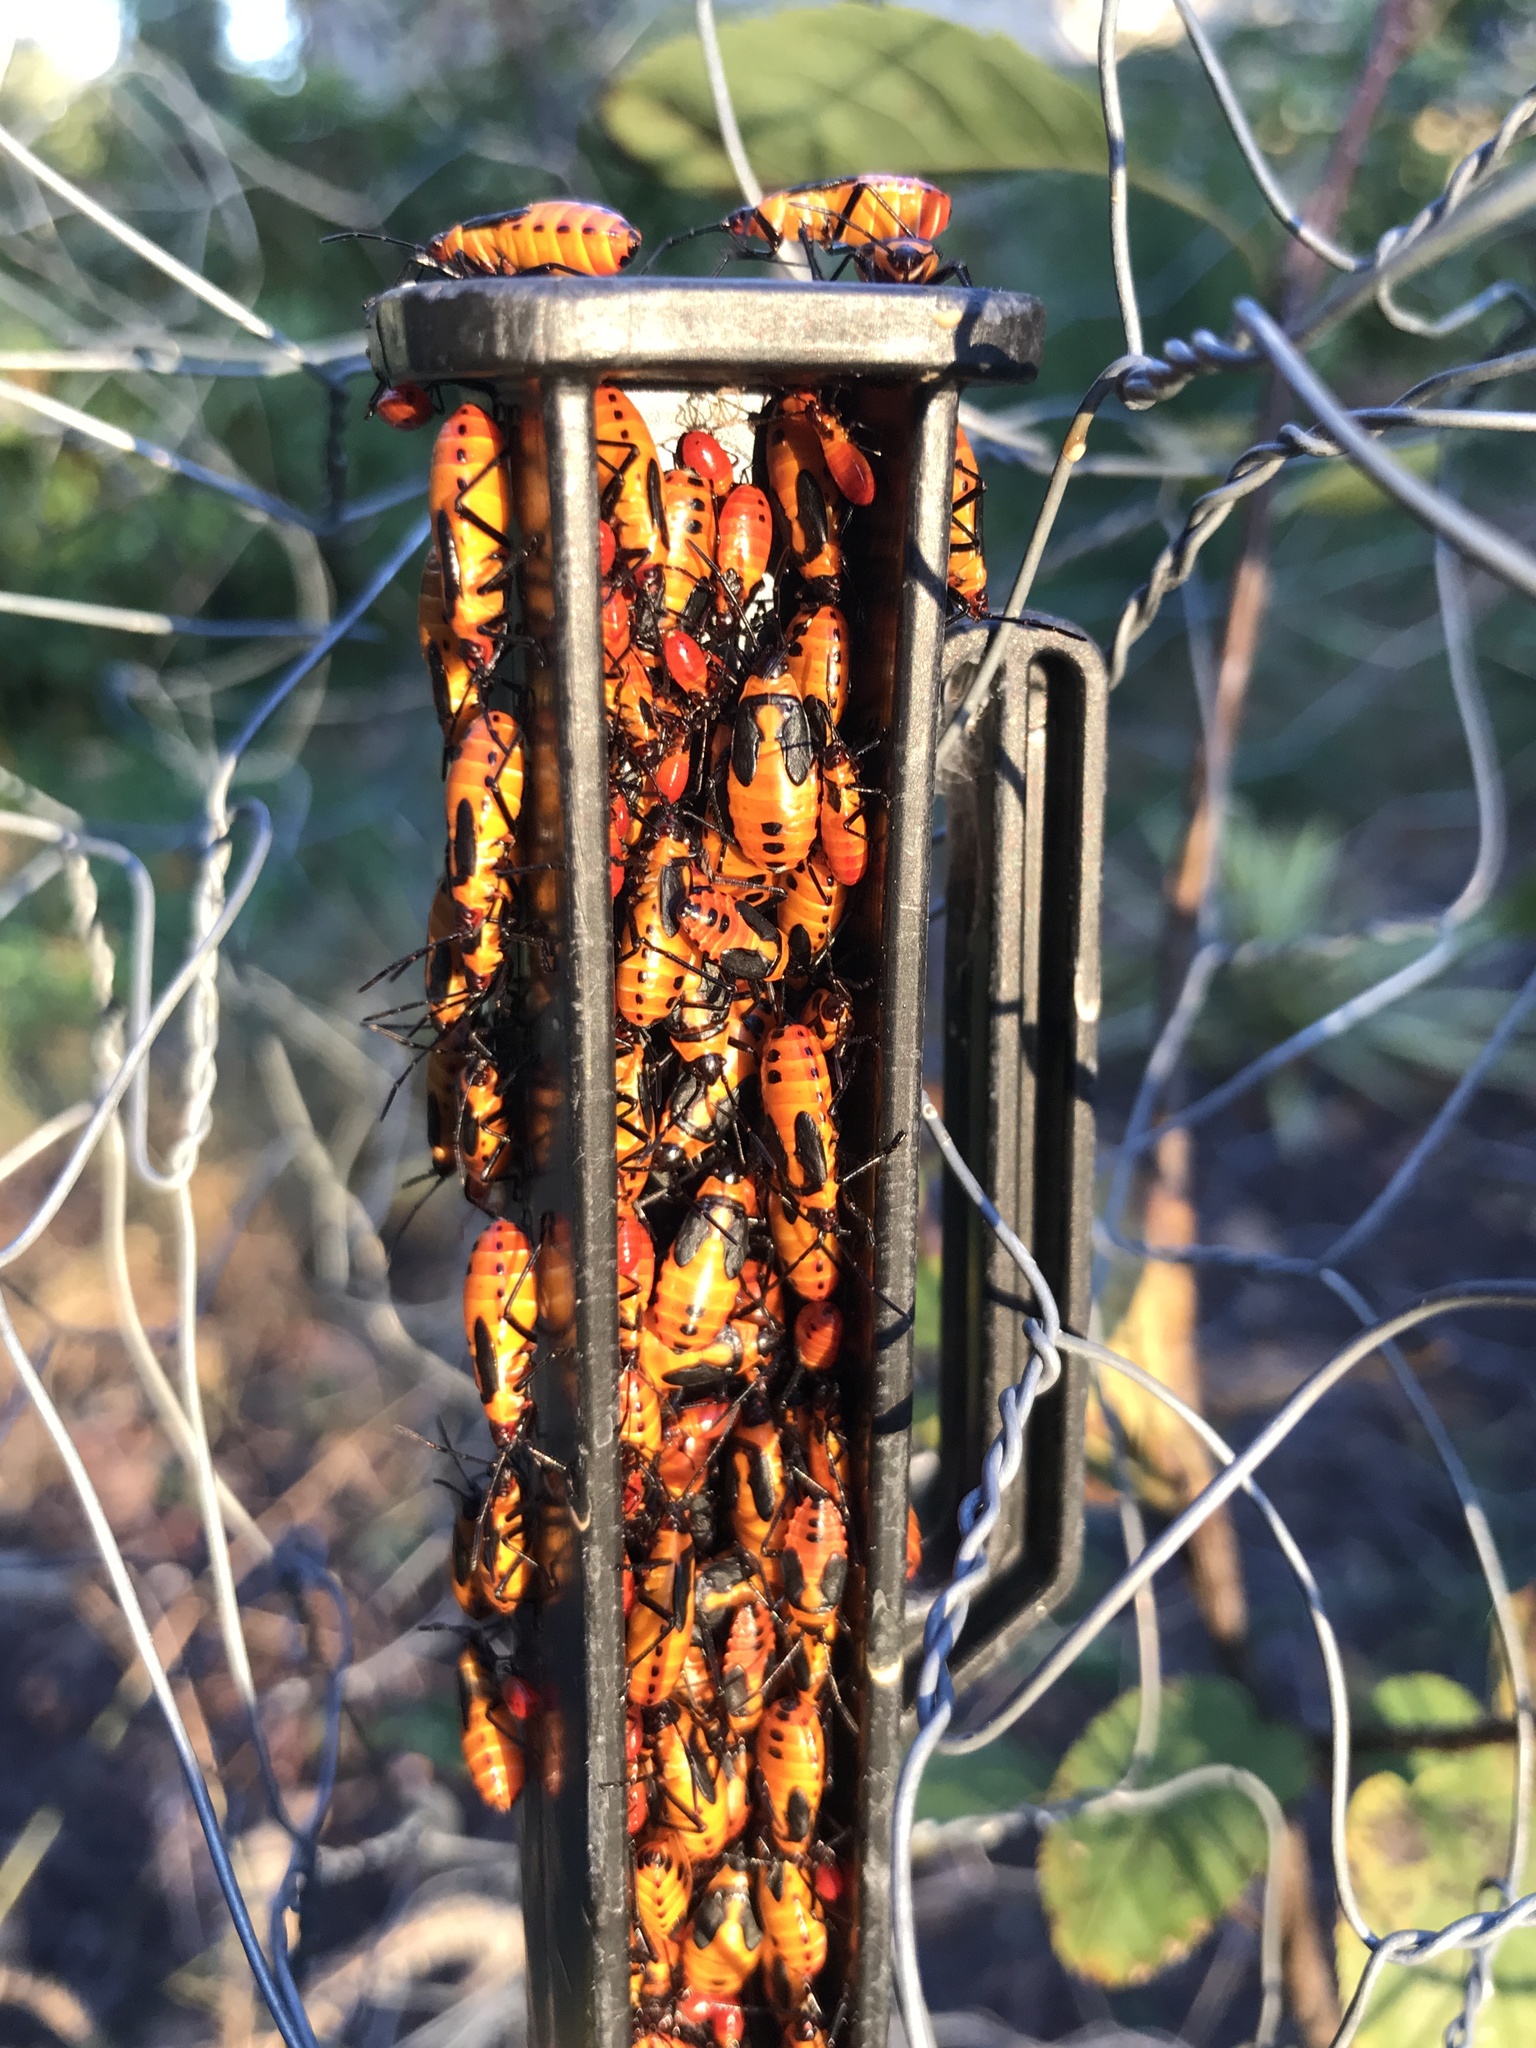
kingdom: Animalia
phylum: Arthropoda
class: Insecta
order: Hemiptera
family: Lygaeidae
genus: Oncopeltus
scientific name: Oncopeltus fasciatus
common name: Large milkweed bug
